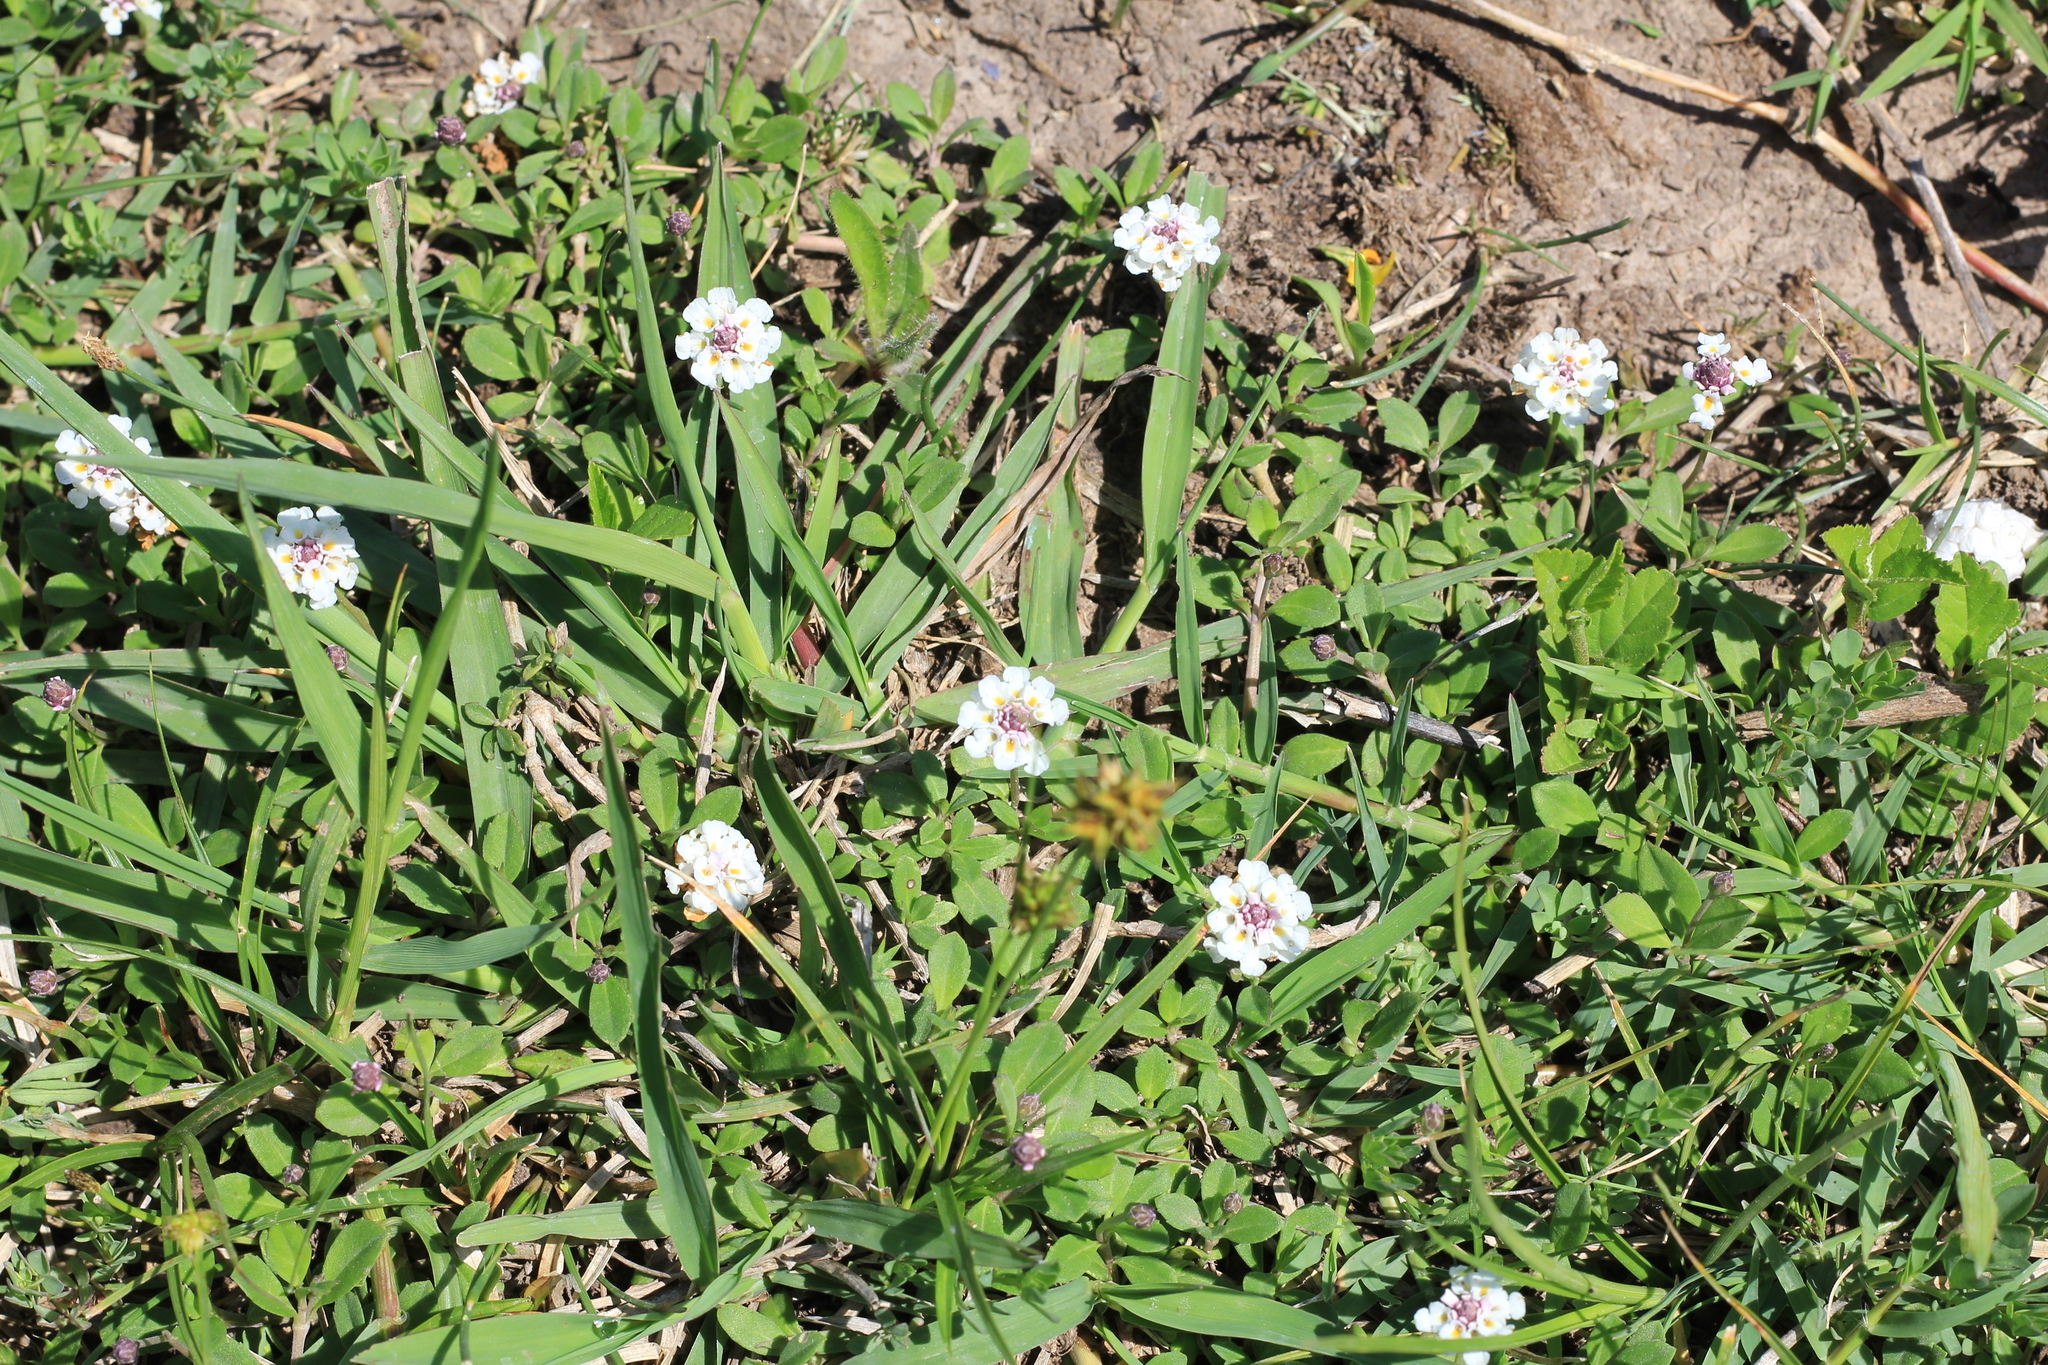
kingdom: Plantae
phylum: Tracheophyta
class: Magnoliopsida
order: Lamiales
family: Verbenaceae
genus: Phyla
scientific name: Phyla nodiflora
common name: Frogfruit
